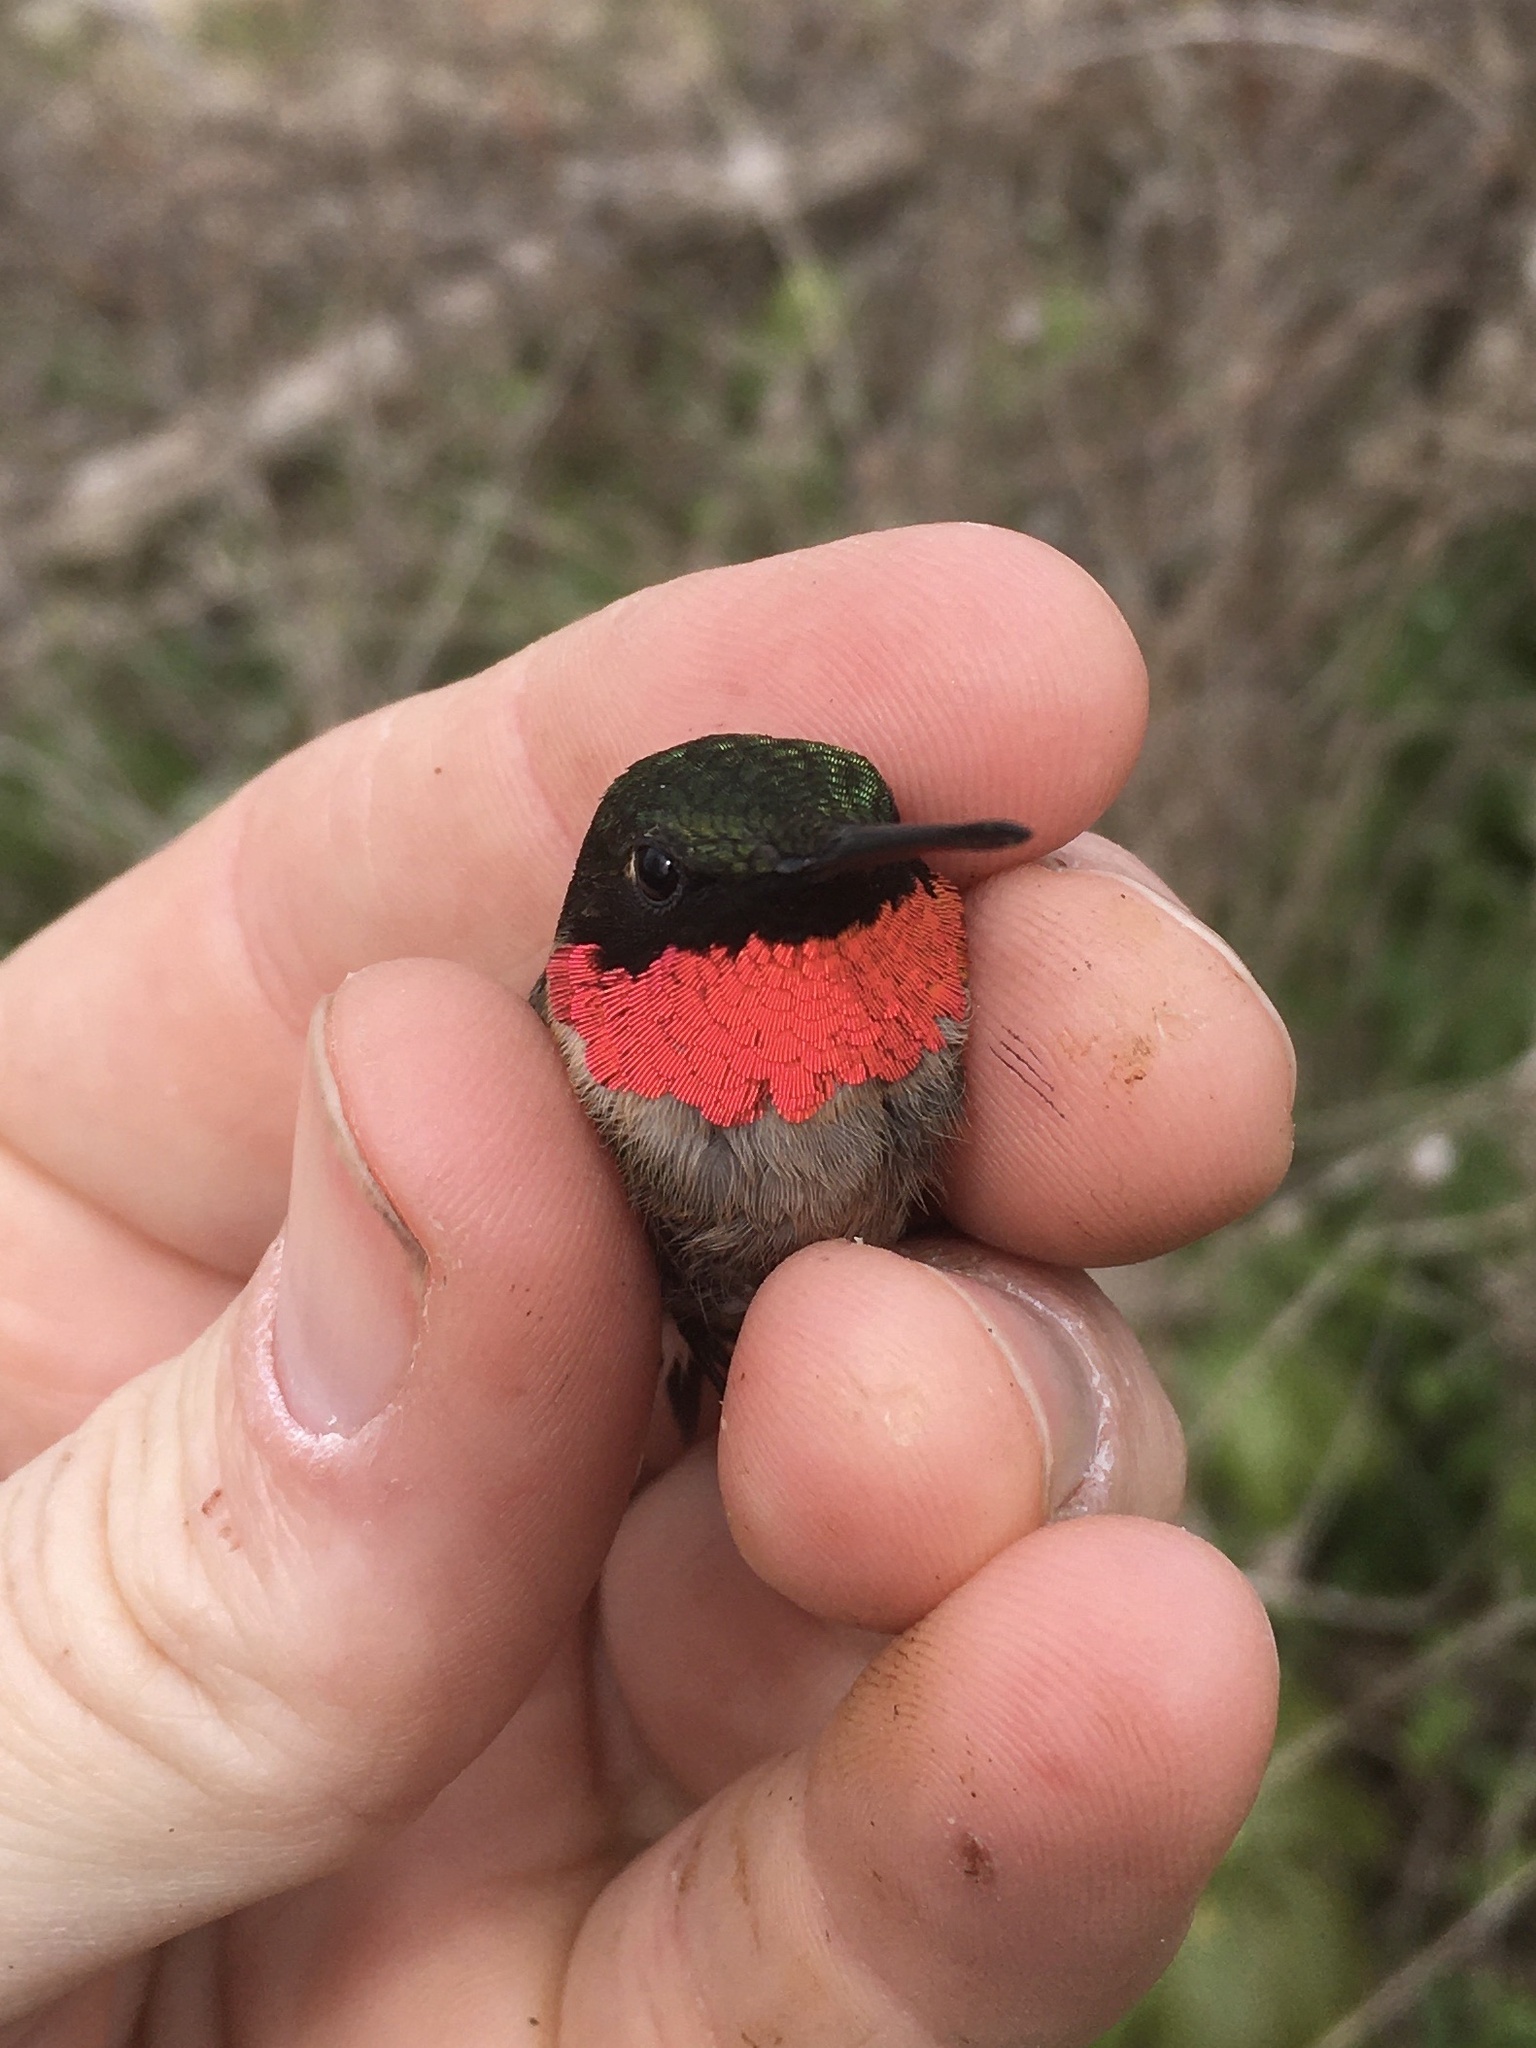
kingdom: Animalia
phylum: Chordata
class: Aves
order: Apodiformes
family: Trochilidae
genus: Archilochus
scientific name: Archilochus colubris
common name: Ruby-throated hummingbird
